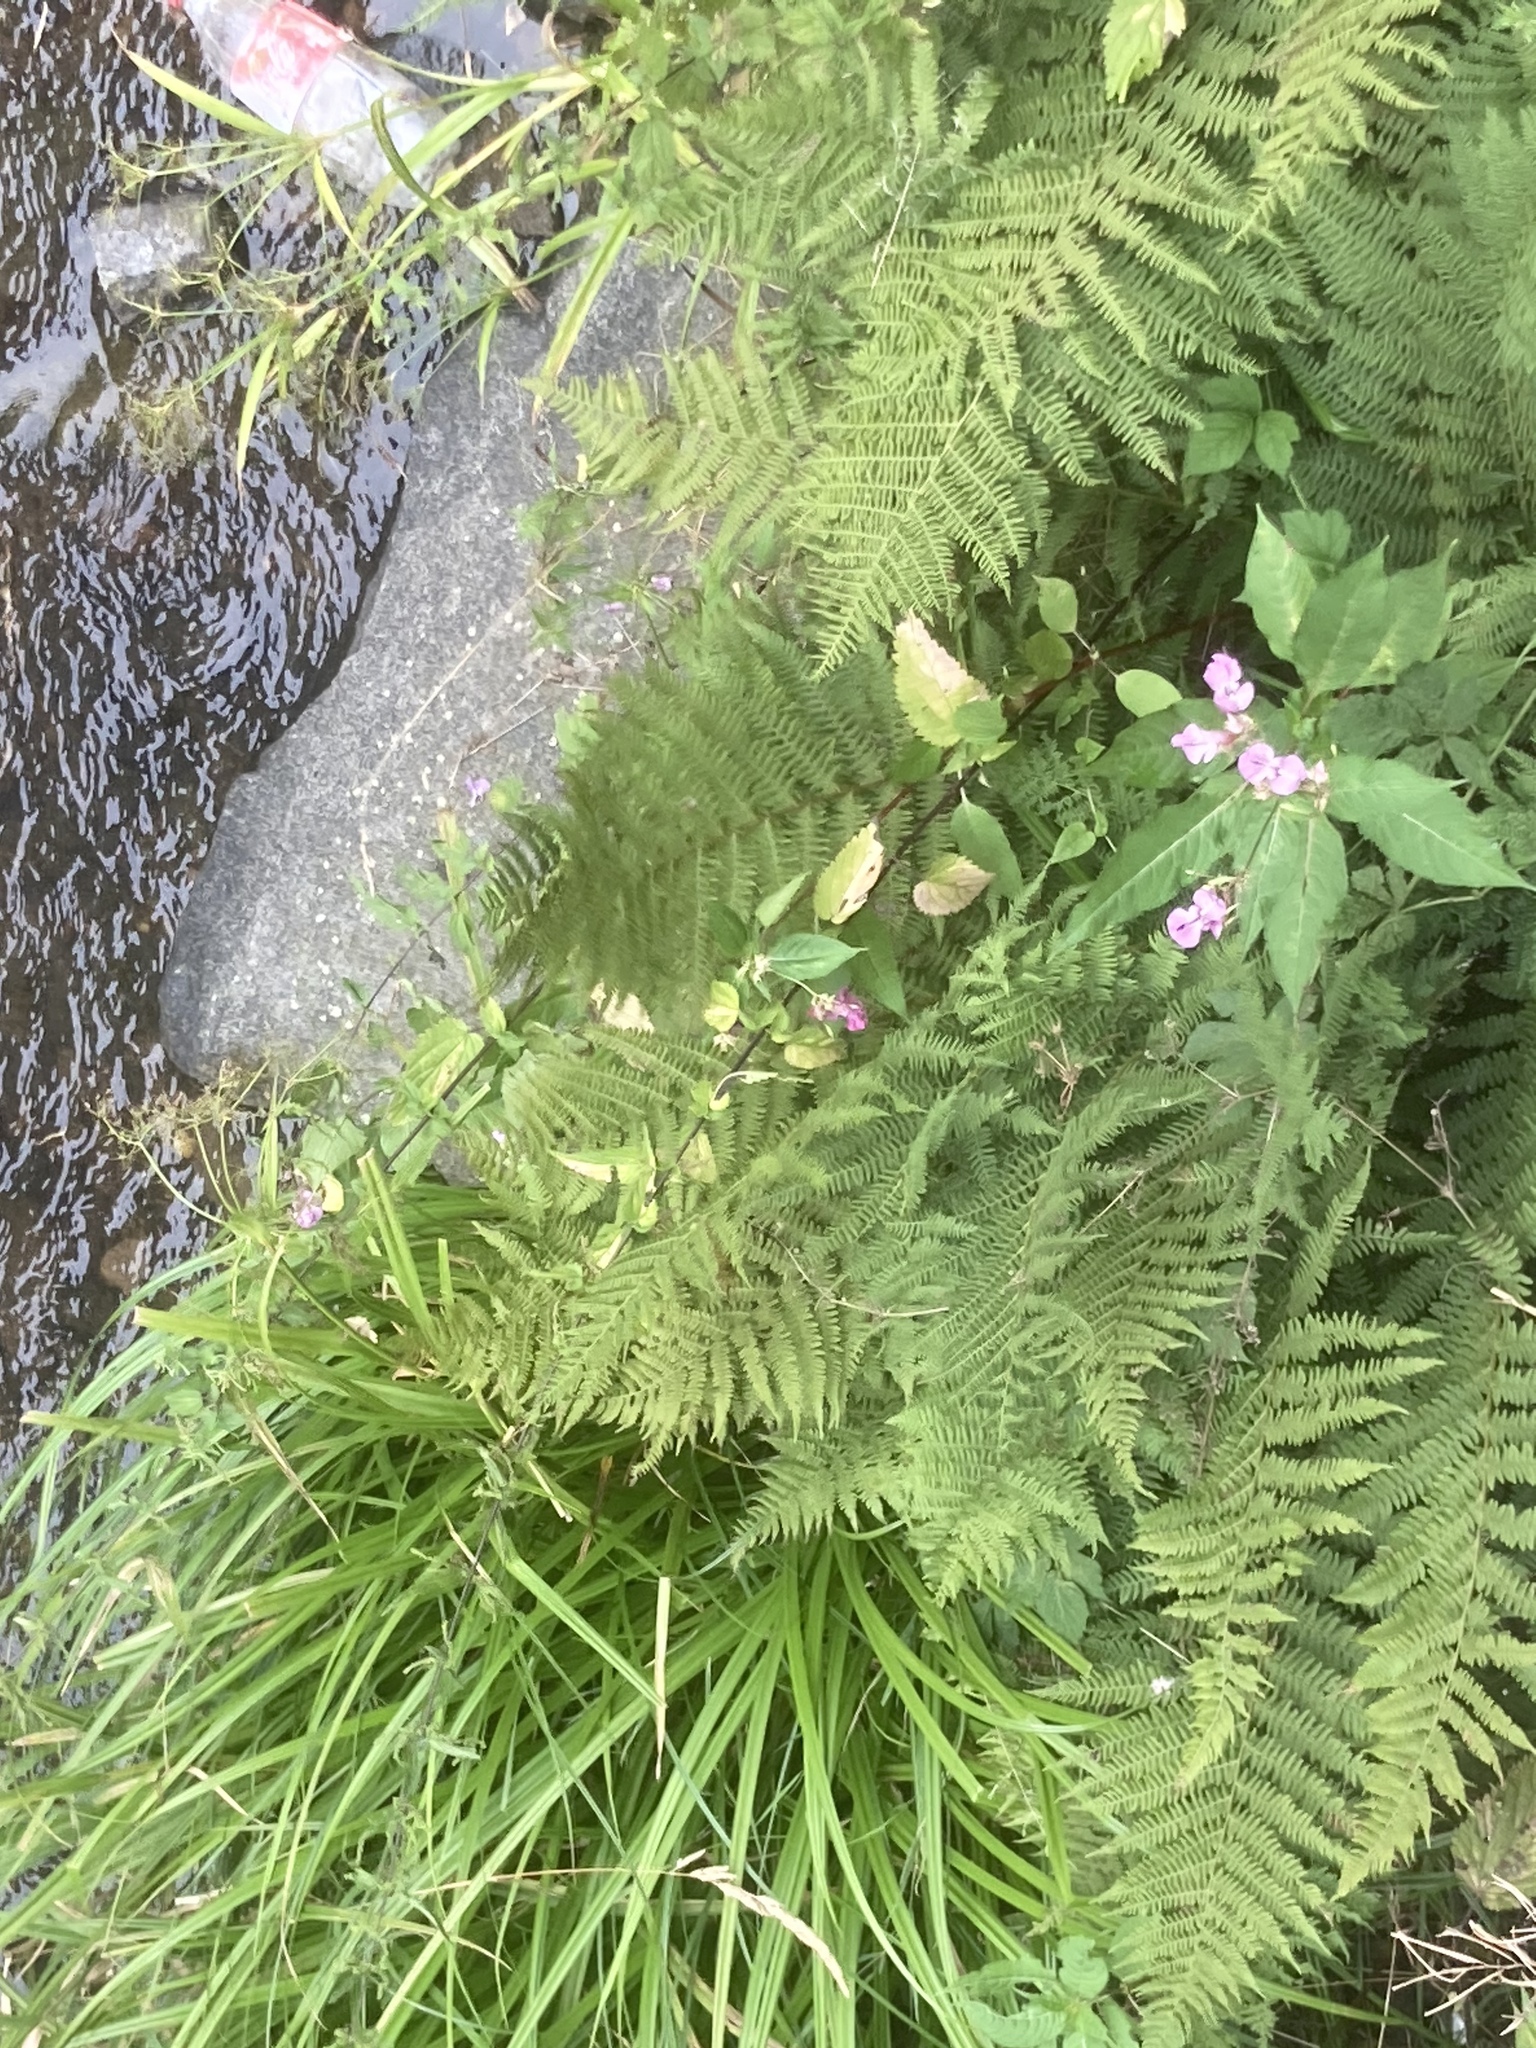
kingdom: Plantae
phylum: Tracheophyta
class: Polypodiopsida
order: Polypodiales
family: Athyriaceae
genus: Athyrium
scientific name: Athyrium filix-femina
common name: Lady fern
